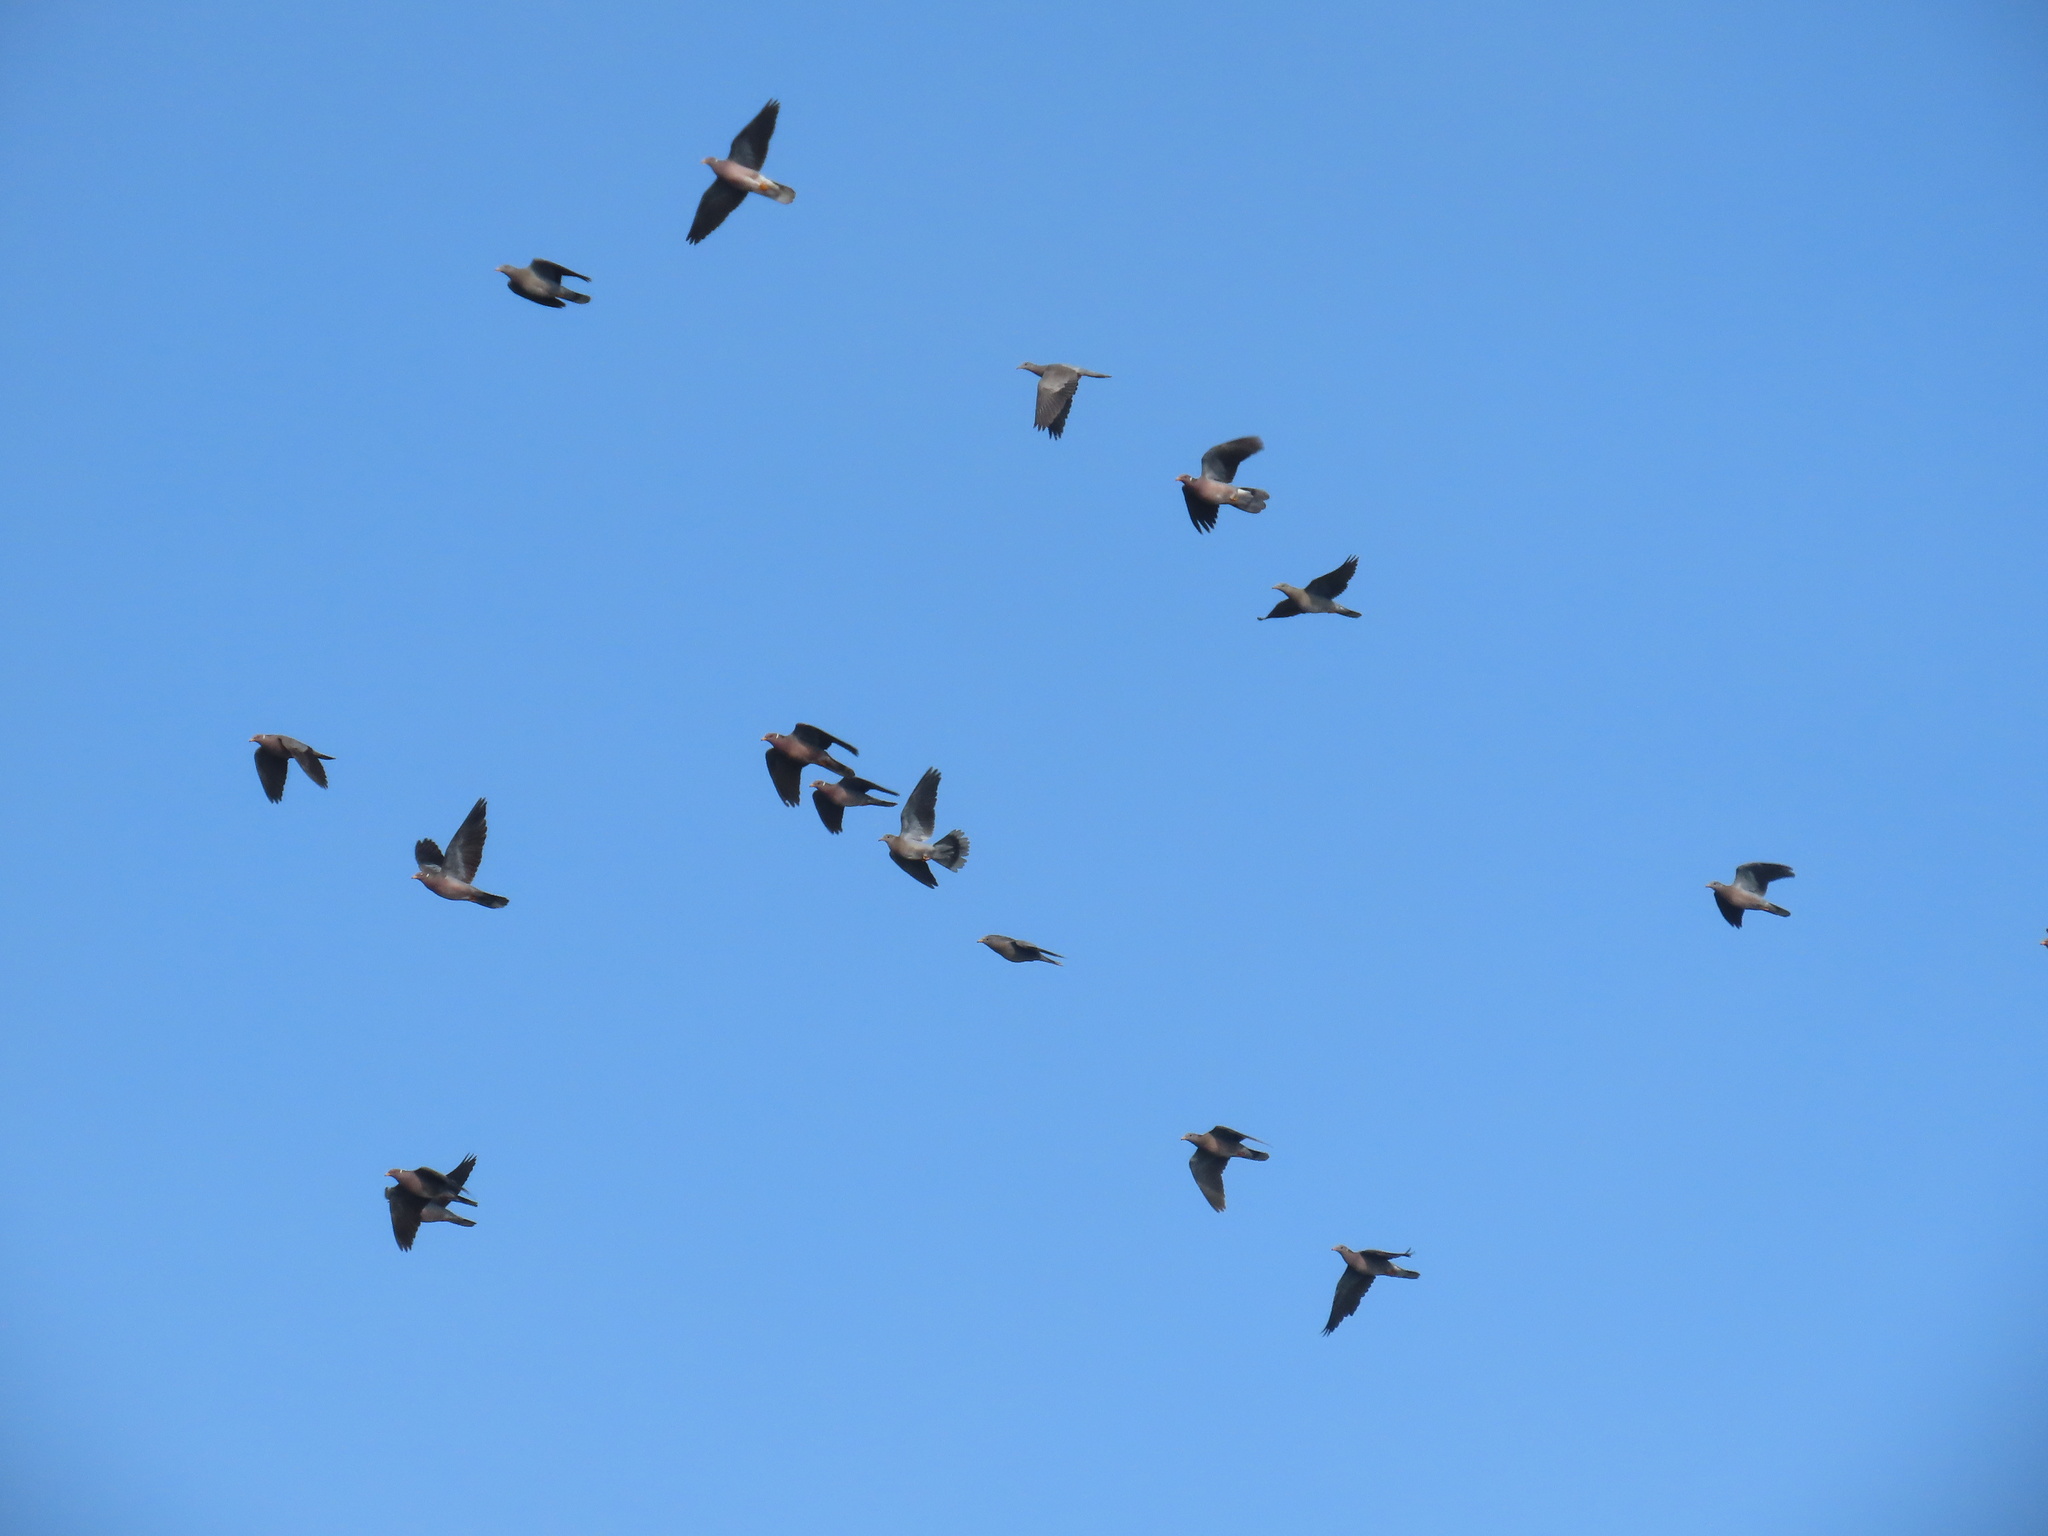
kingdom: Animalia
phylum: Chordata
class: Aves
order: Columbiformes
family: Columbidae
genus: Patagioenas
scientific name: Patagioenas fasciata
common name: Band-tailed pigeon
